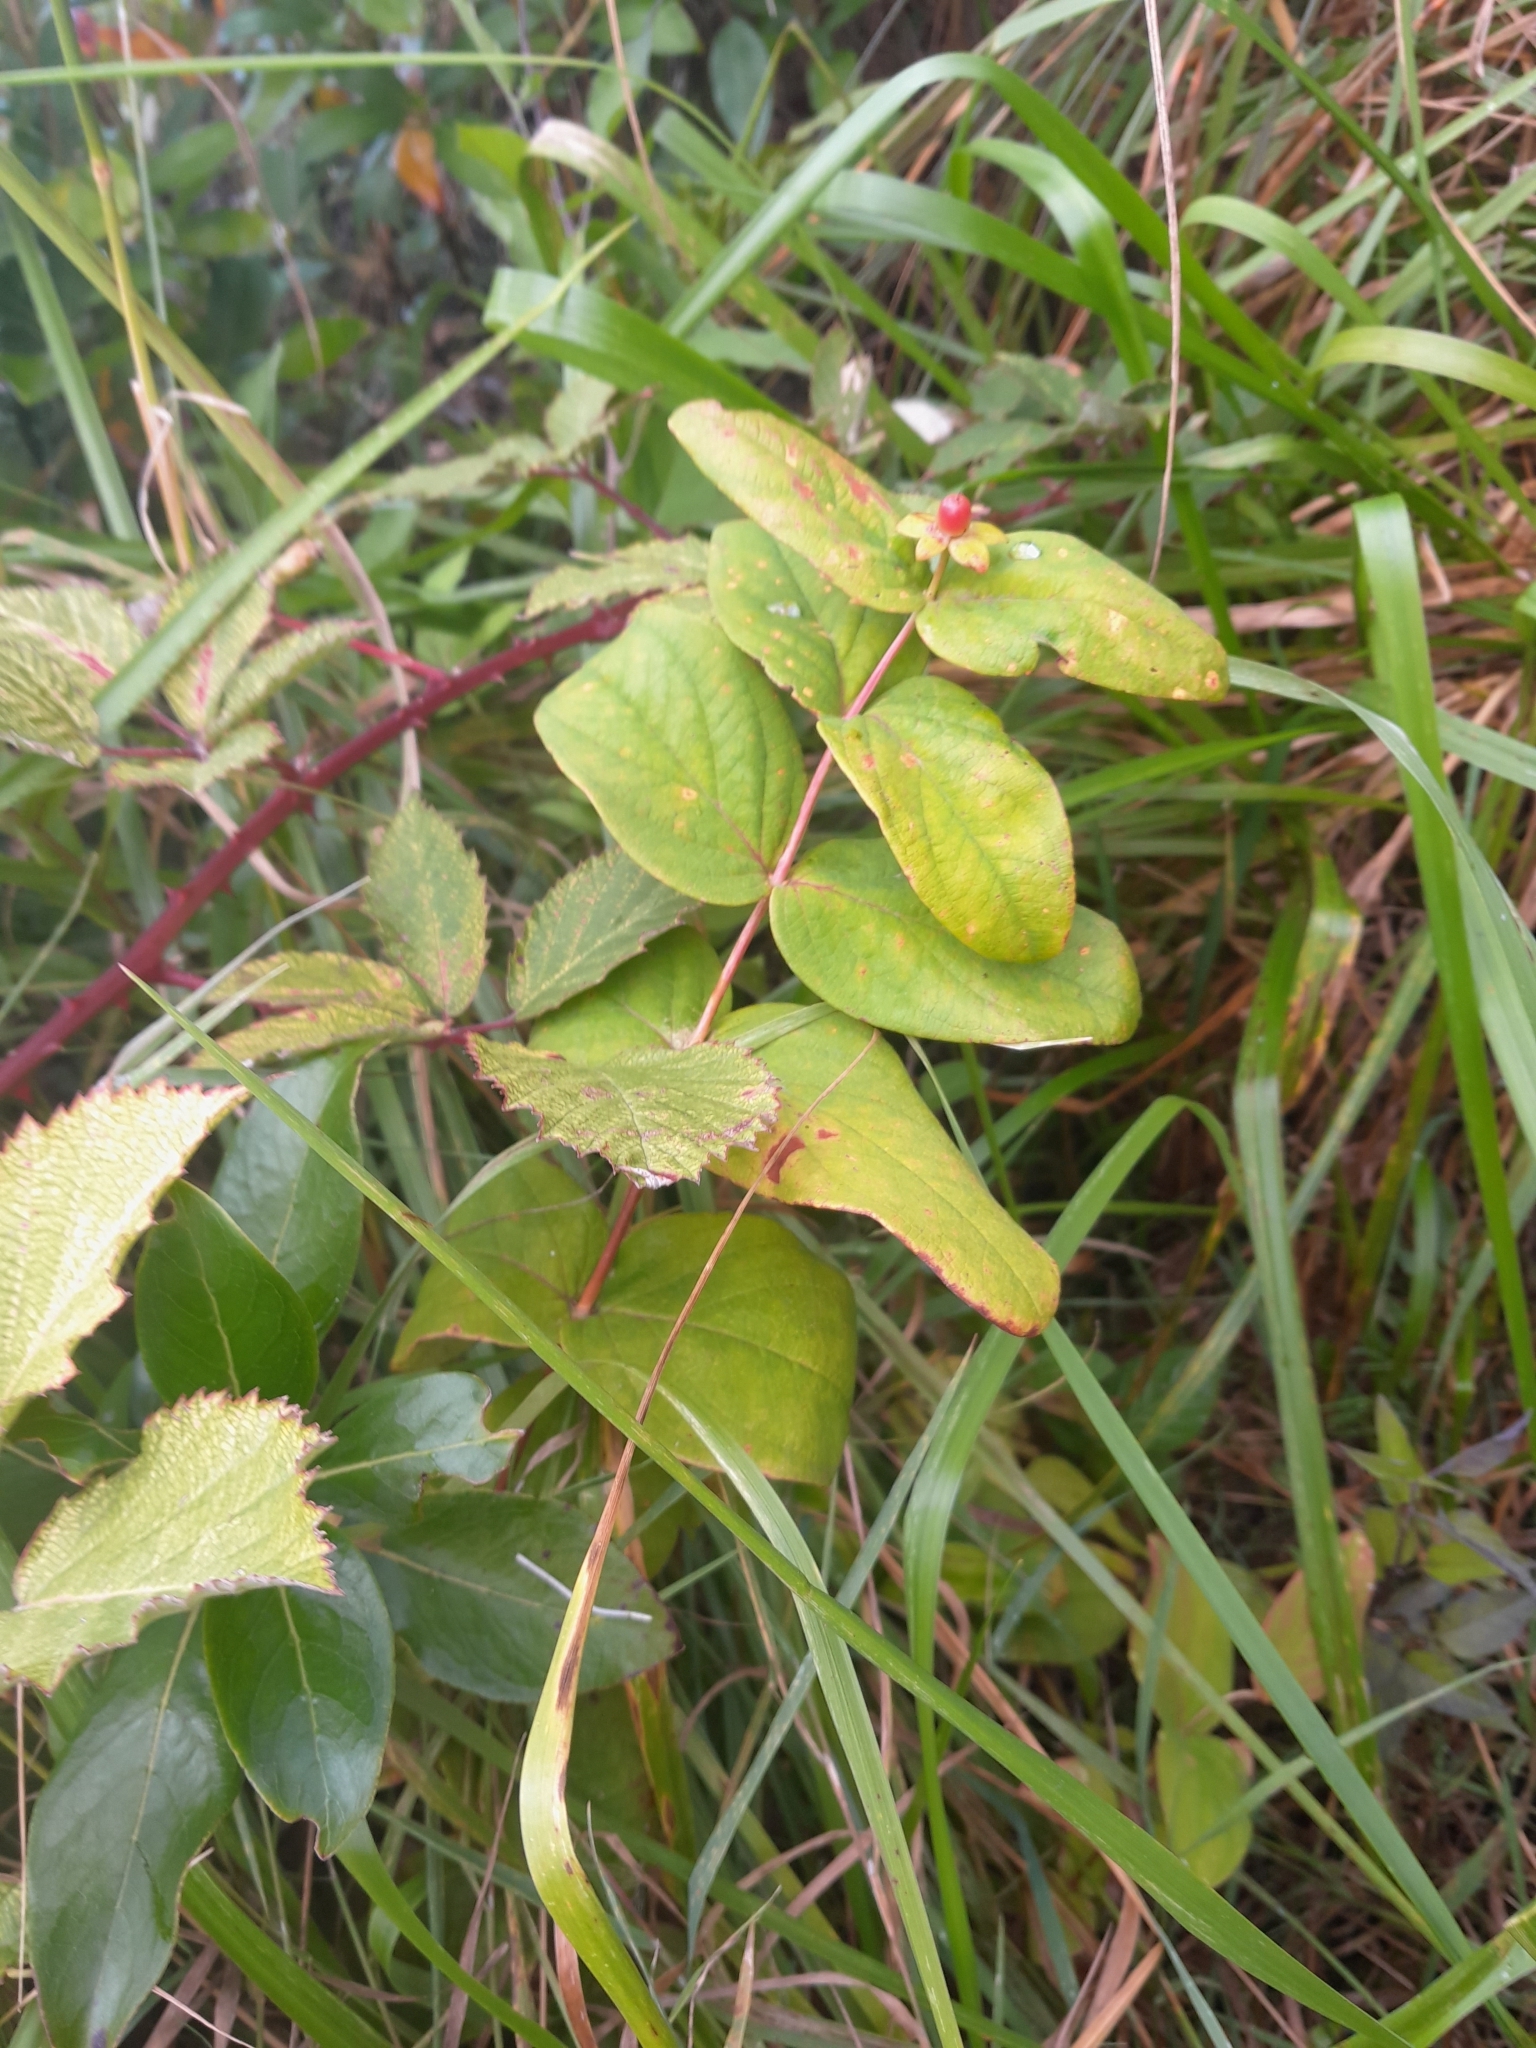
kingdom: Plantae
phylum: Tracheophyta
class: Magnoliopsida
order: Malpighiales
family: Hypericaceae
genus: Hypericum
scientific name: Hypericum androsaemum
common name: Sweet-amber
